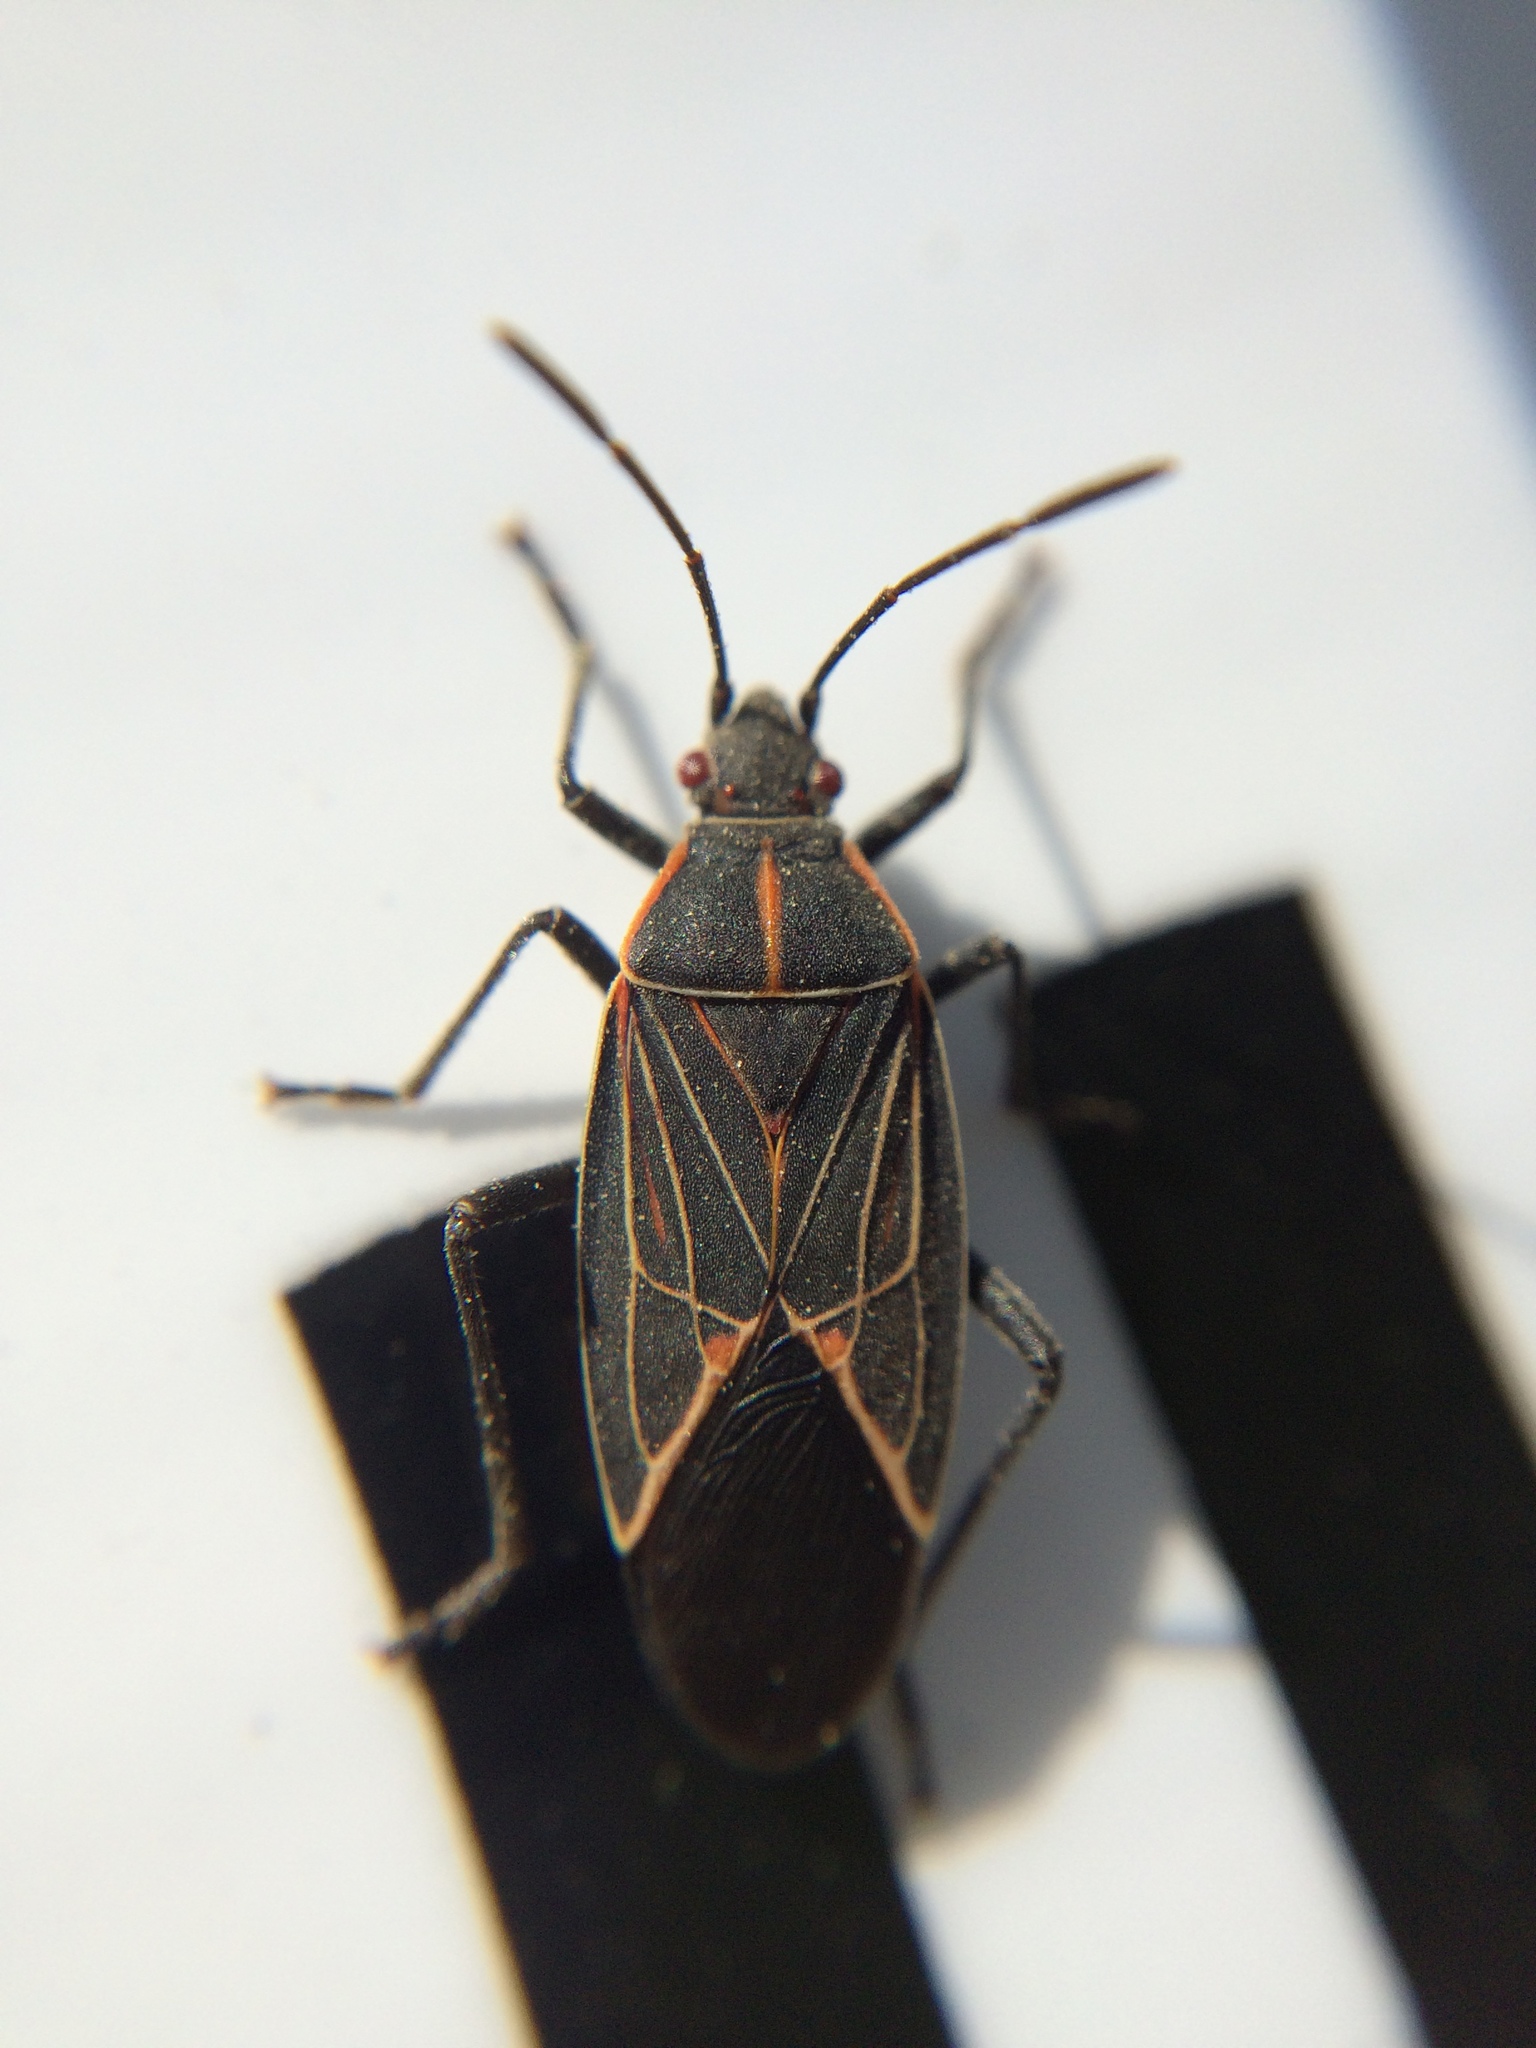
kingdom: Animalia
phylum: Arthropoda
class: Insecta
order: Hemiptera
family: Rhopalidae
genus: Boisea
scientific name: Boisea rubrolineata
